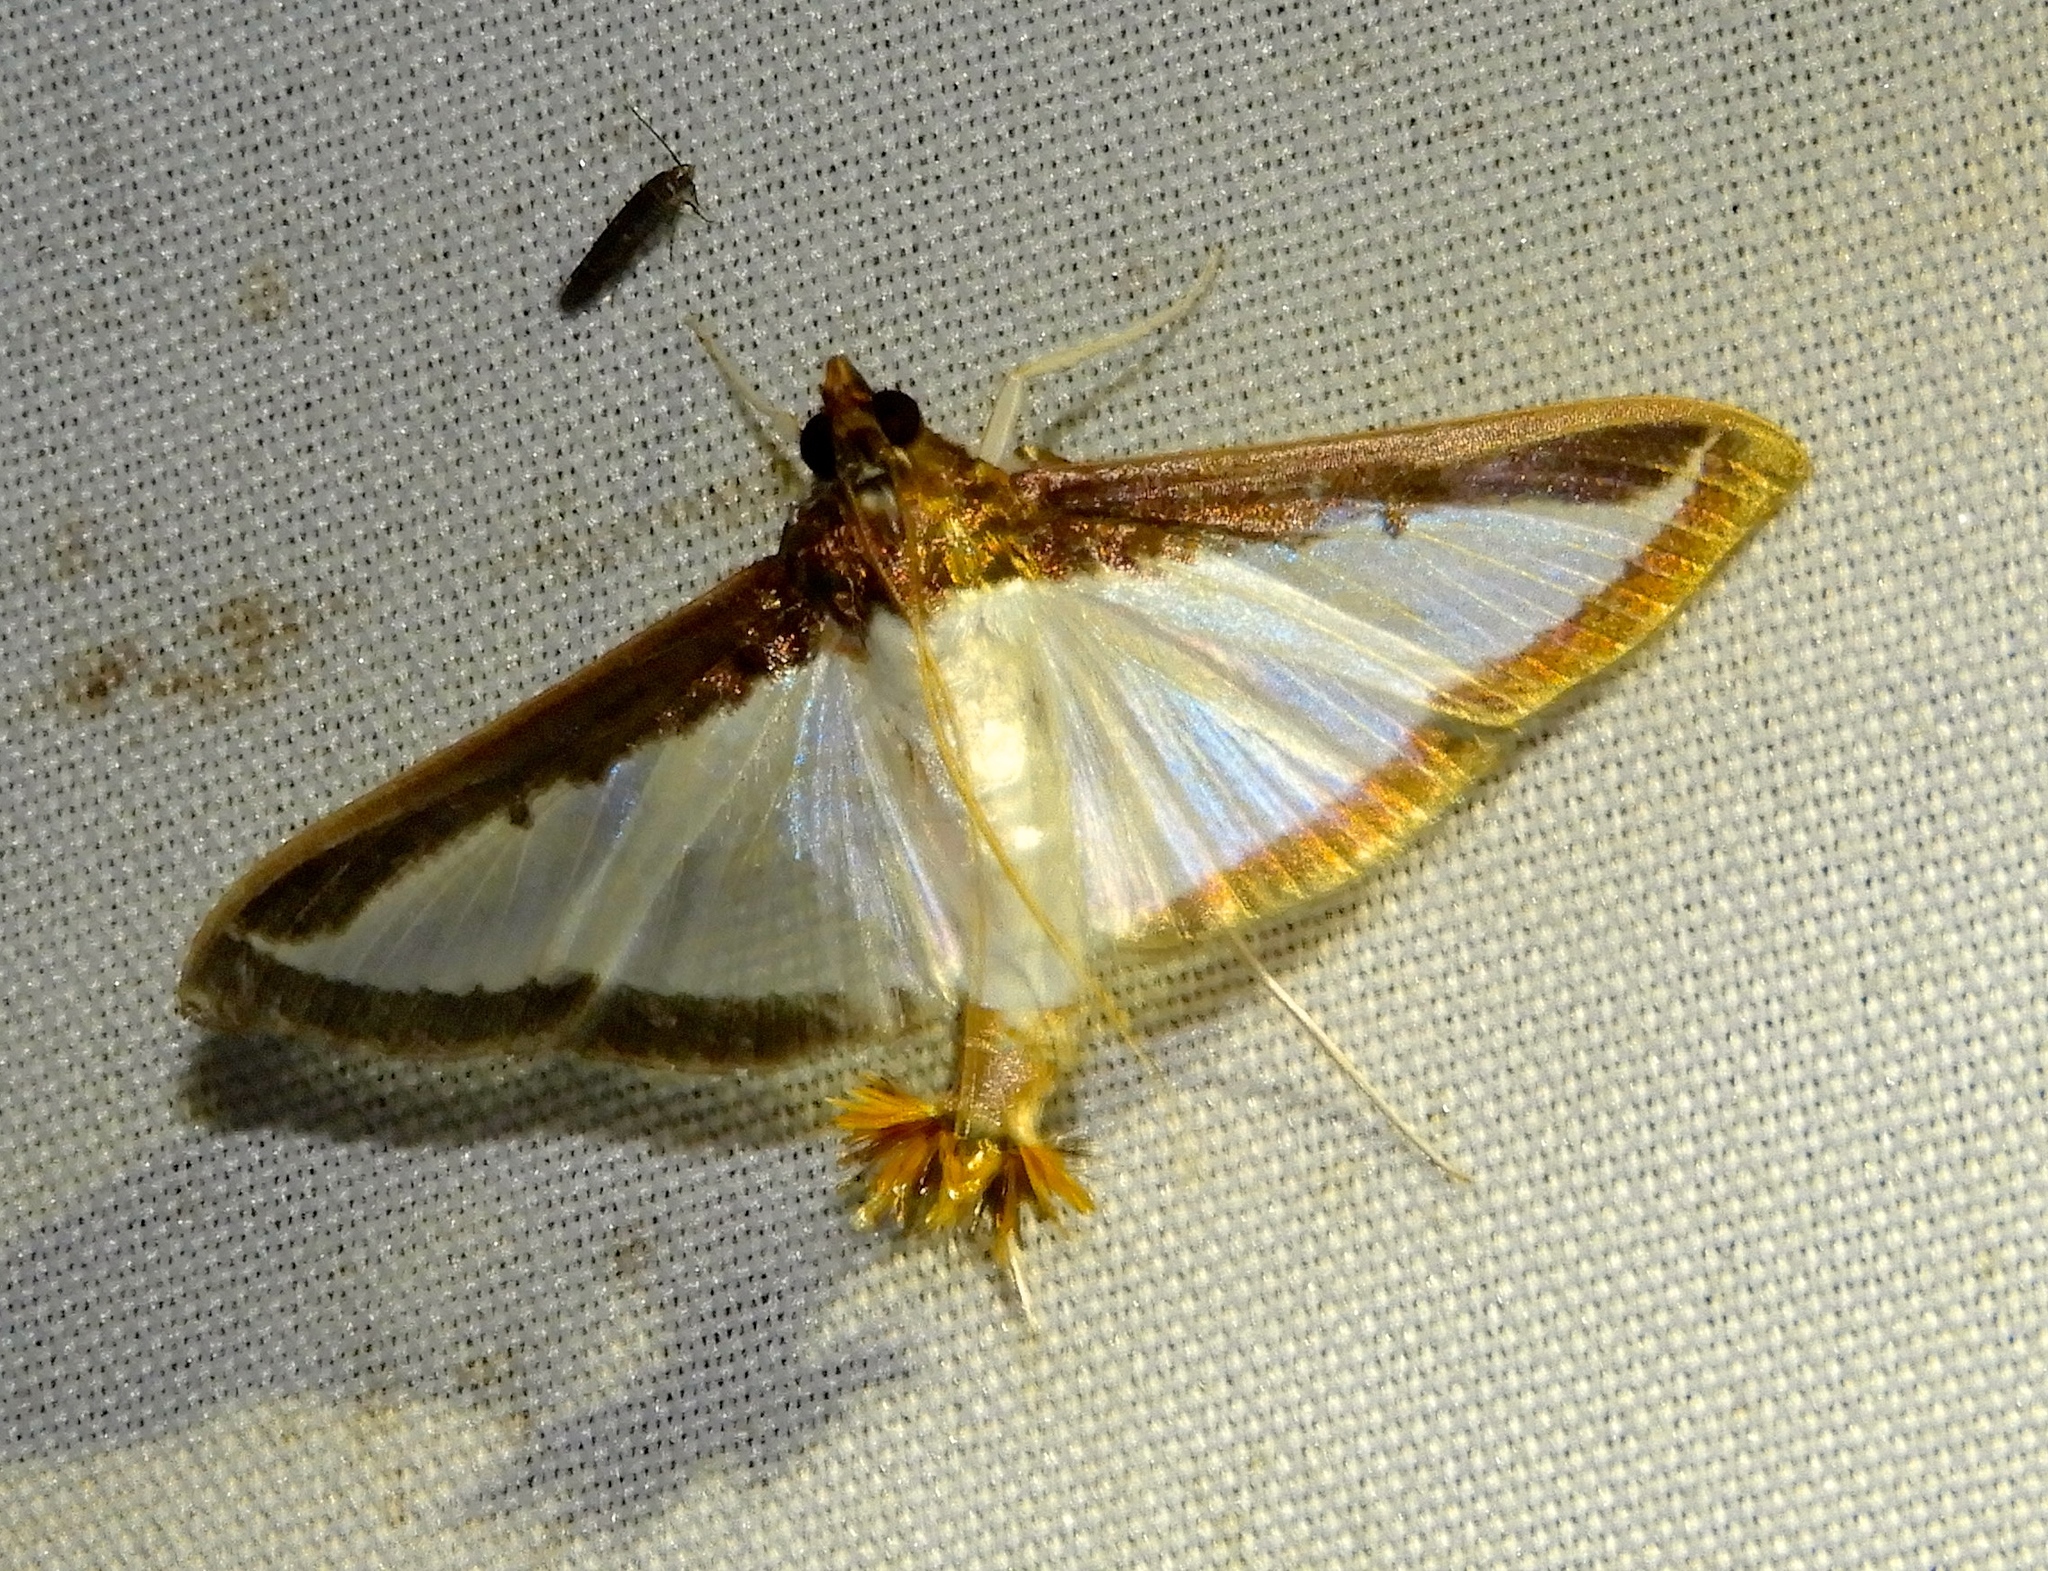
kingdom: Animalia
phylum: Arthropoda
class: Insecta
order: Lepidoptera
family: Crambidae
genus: Diaphania
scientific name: Diaphania hyalinata
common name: Melonworm
